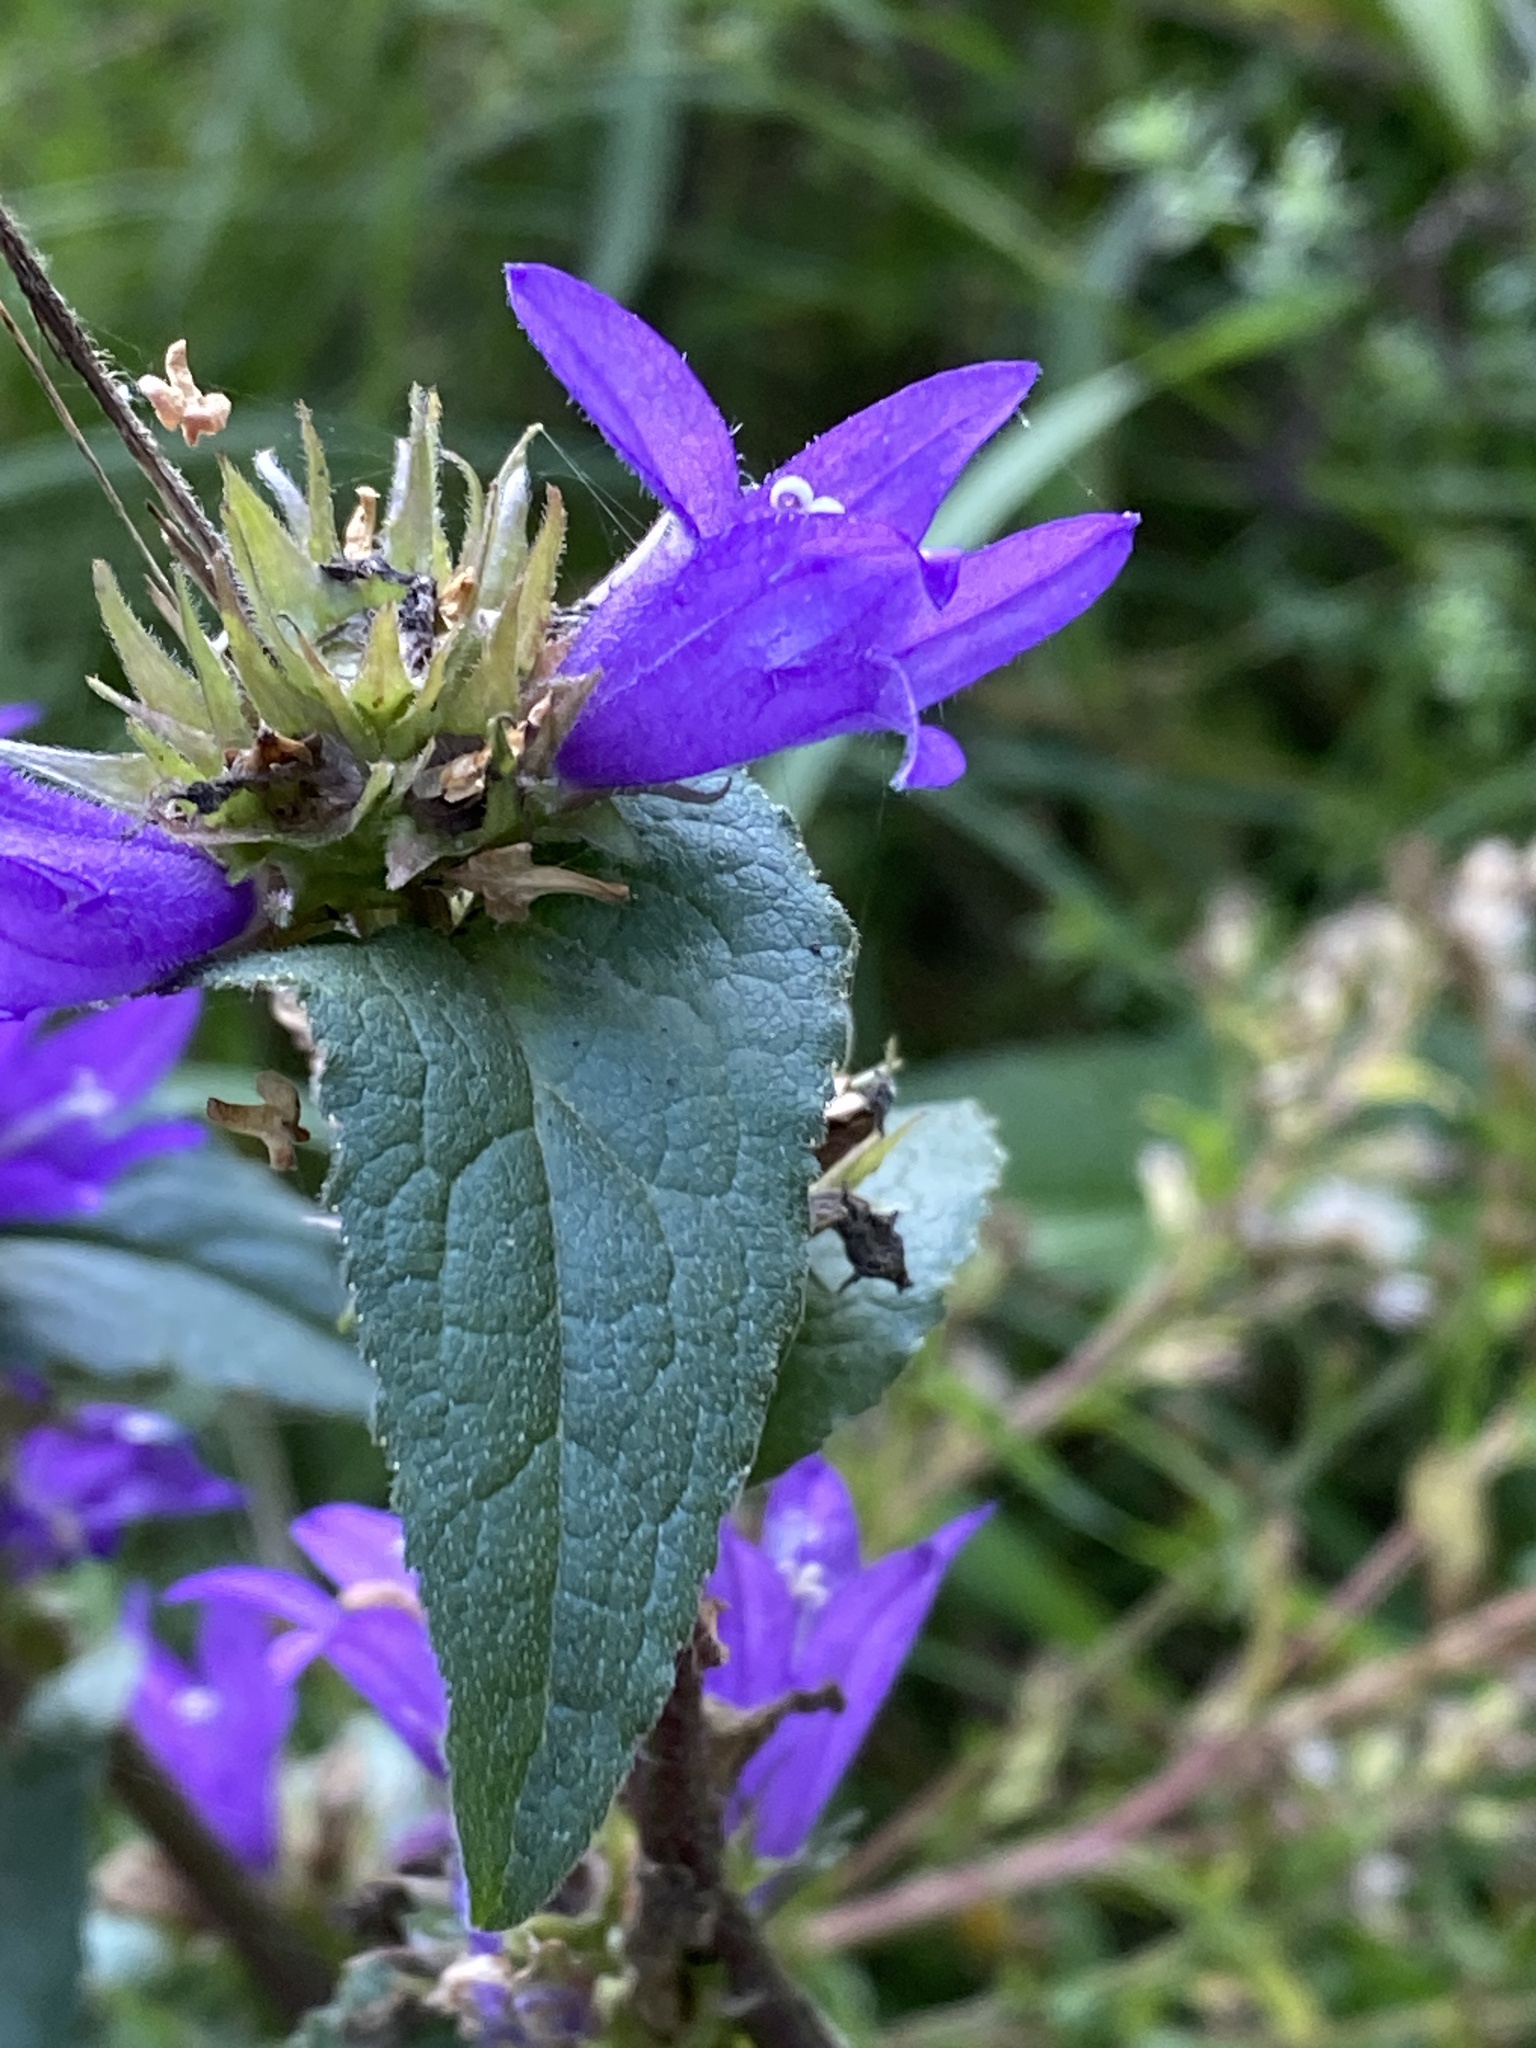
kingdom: Plantae
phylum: Tracheophyta
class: Magnoliopsida
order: Asterales
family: Campanulaceae
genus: Campanula
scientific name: Campanula glomerata
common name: Clustered bellflower
